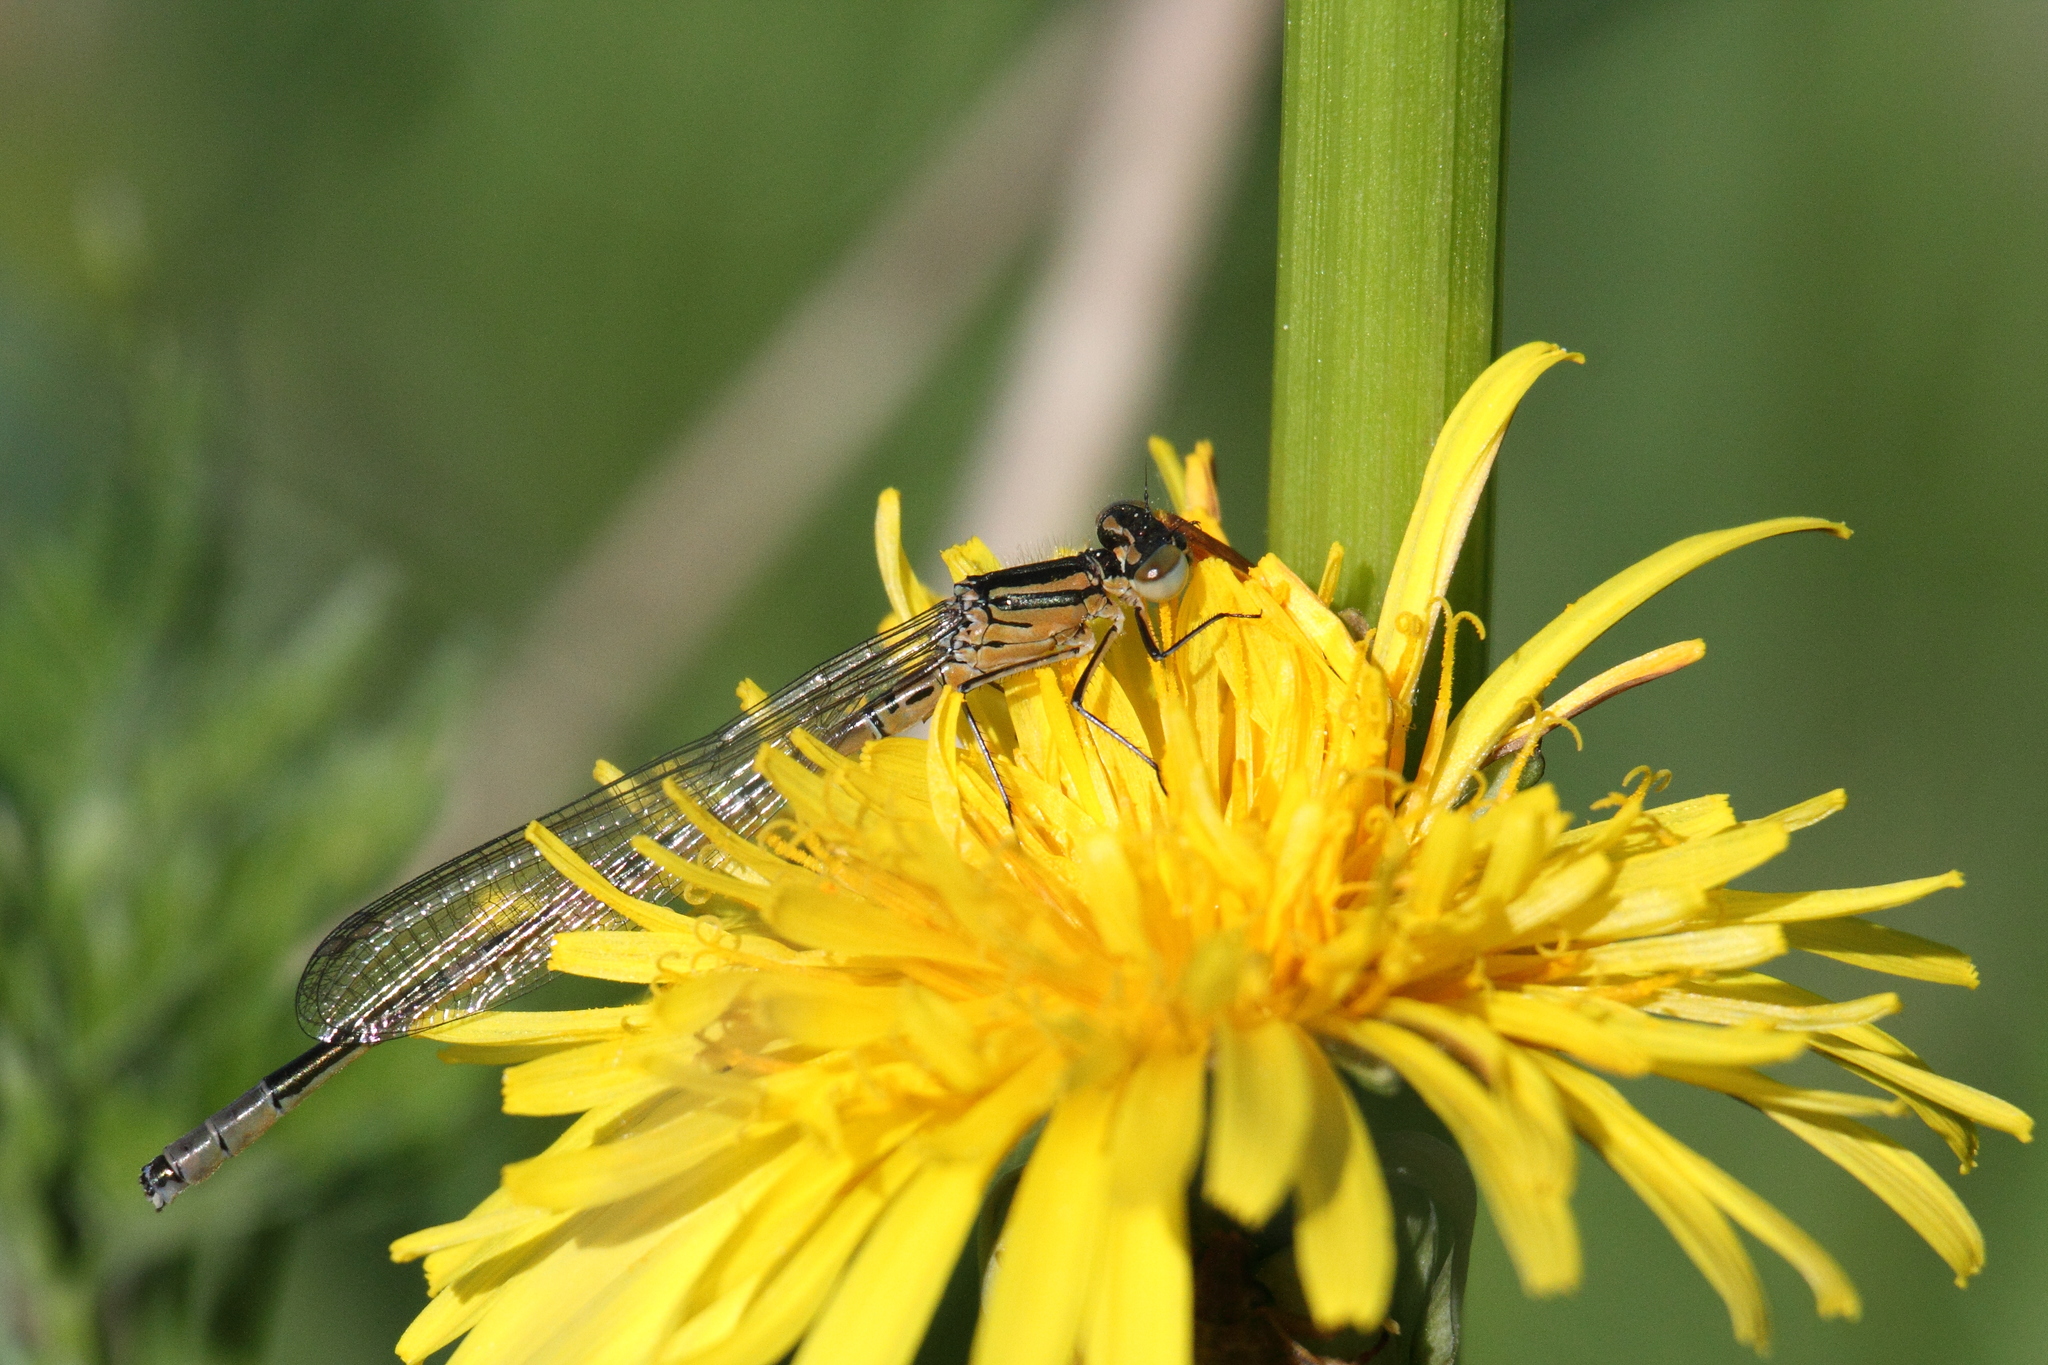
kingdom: Animalia
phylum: Arthropoda
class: Insecta
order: Odonata
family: Coenagrionidae
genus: Coenagrion
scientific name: Coenagrion hastulatum
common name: Spearhead bluet
